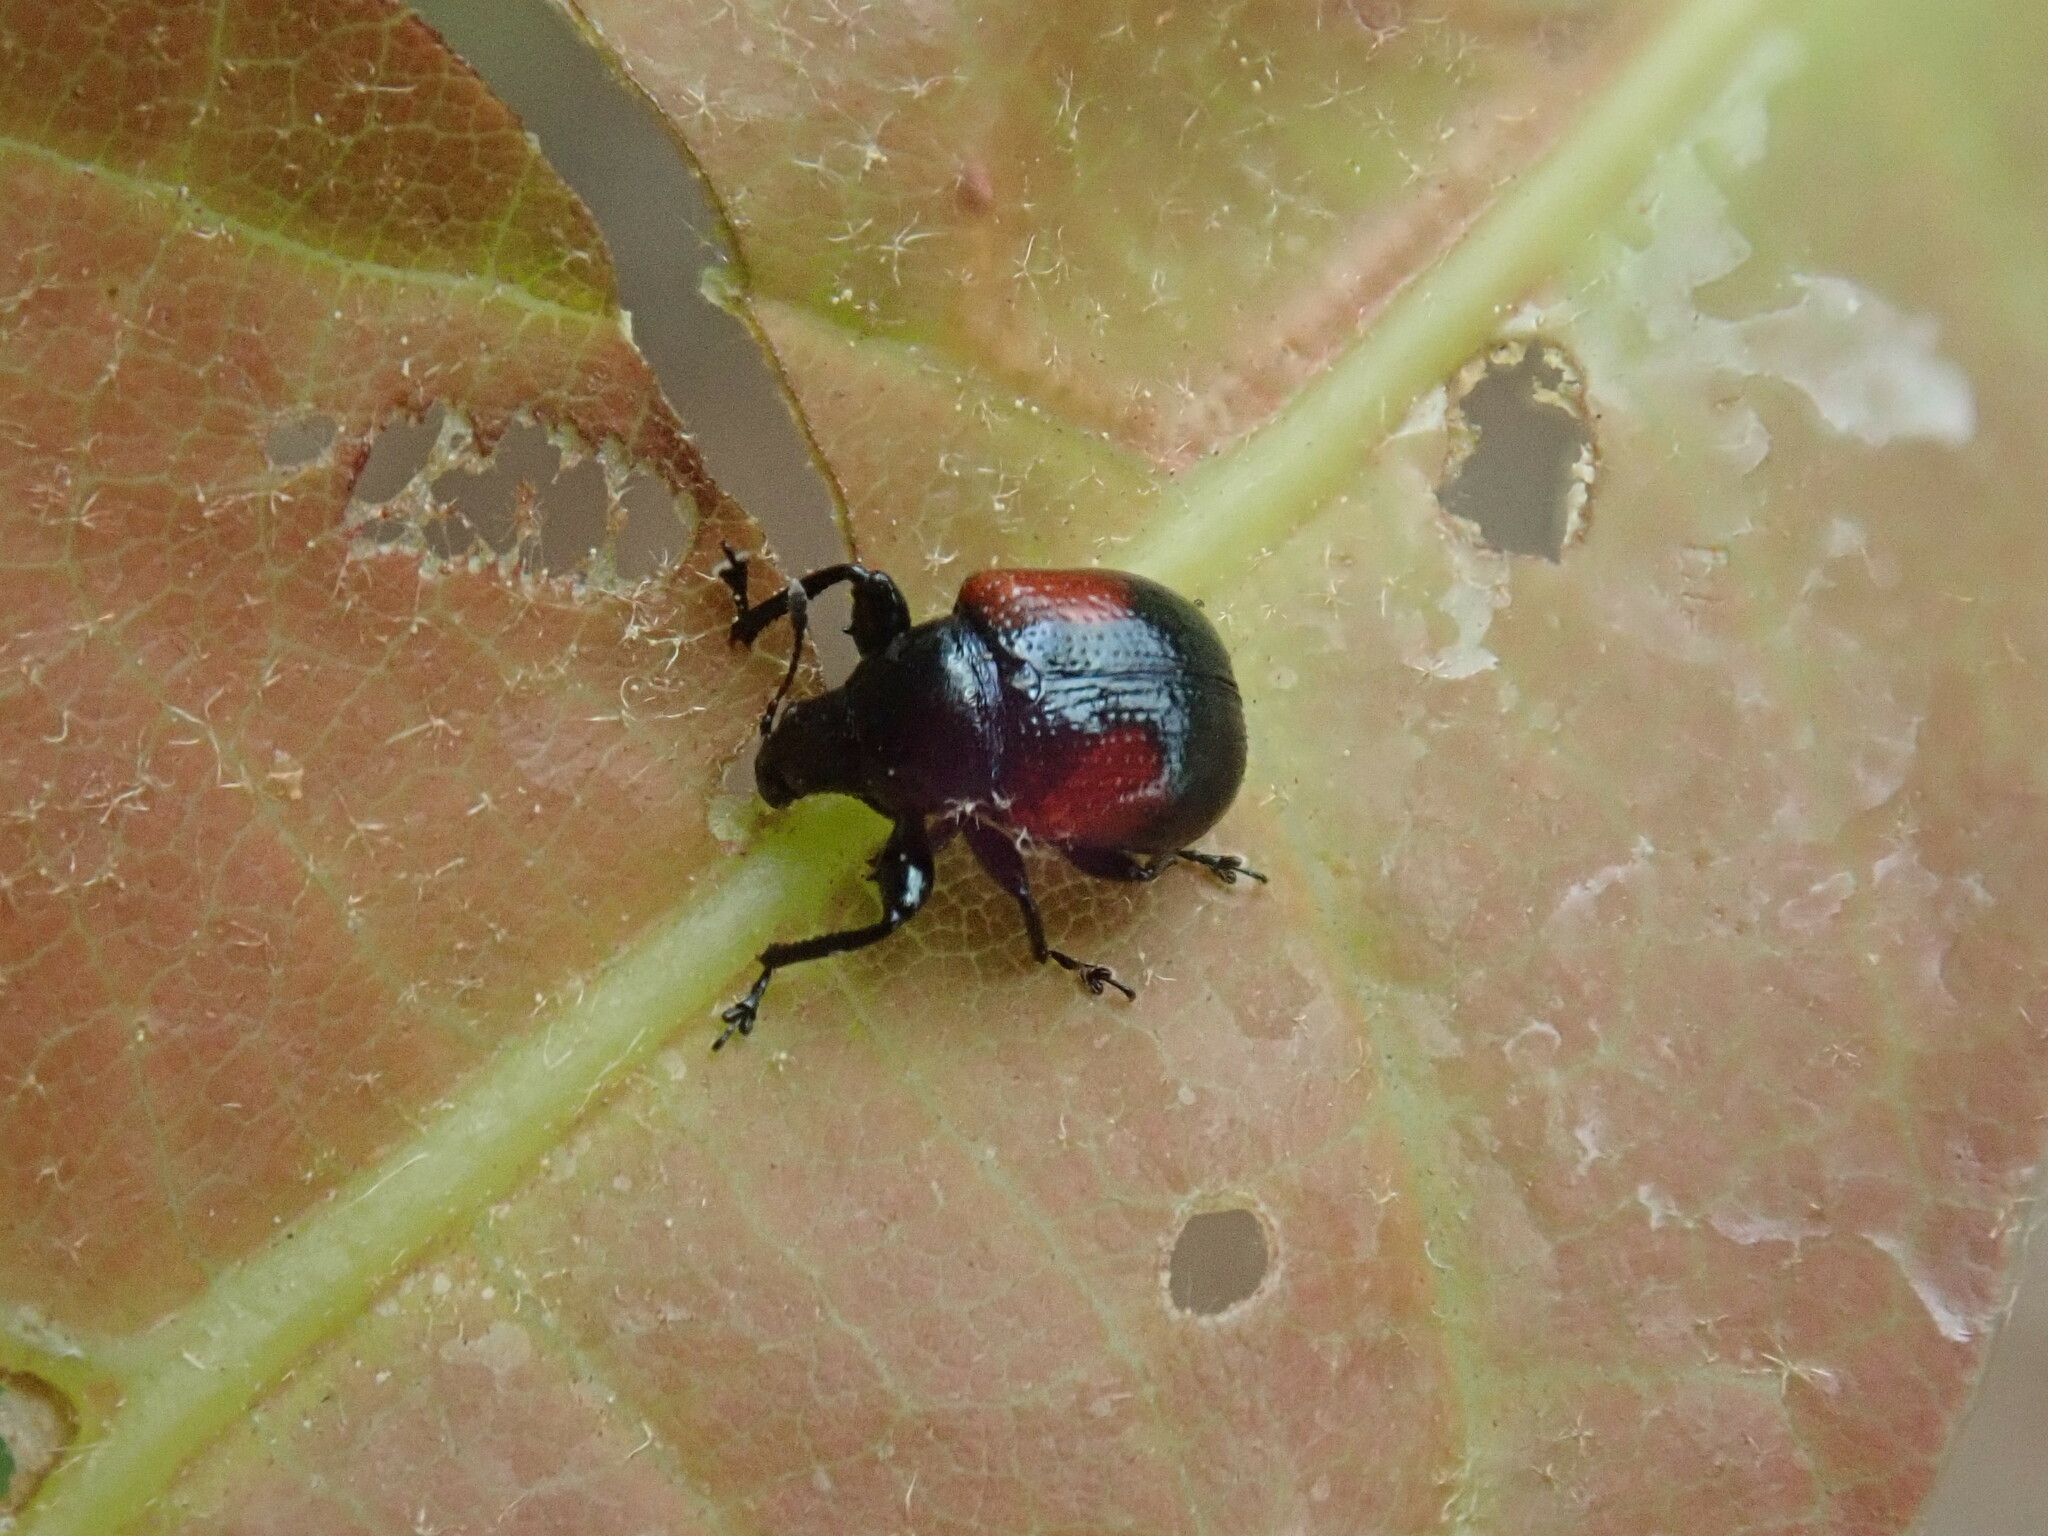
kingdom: Animalia
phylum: Arthropoda
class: Insecta
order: Coleoptera
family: Attelabidae
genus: Attelabus
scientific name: Attelabus bipustulatus
